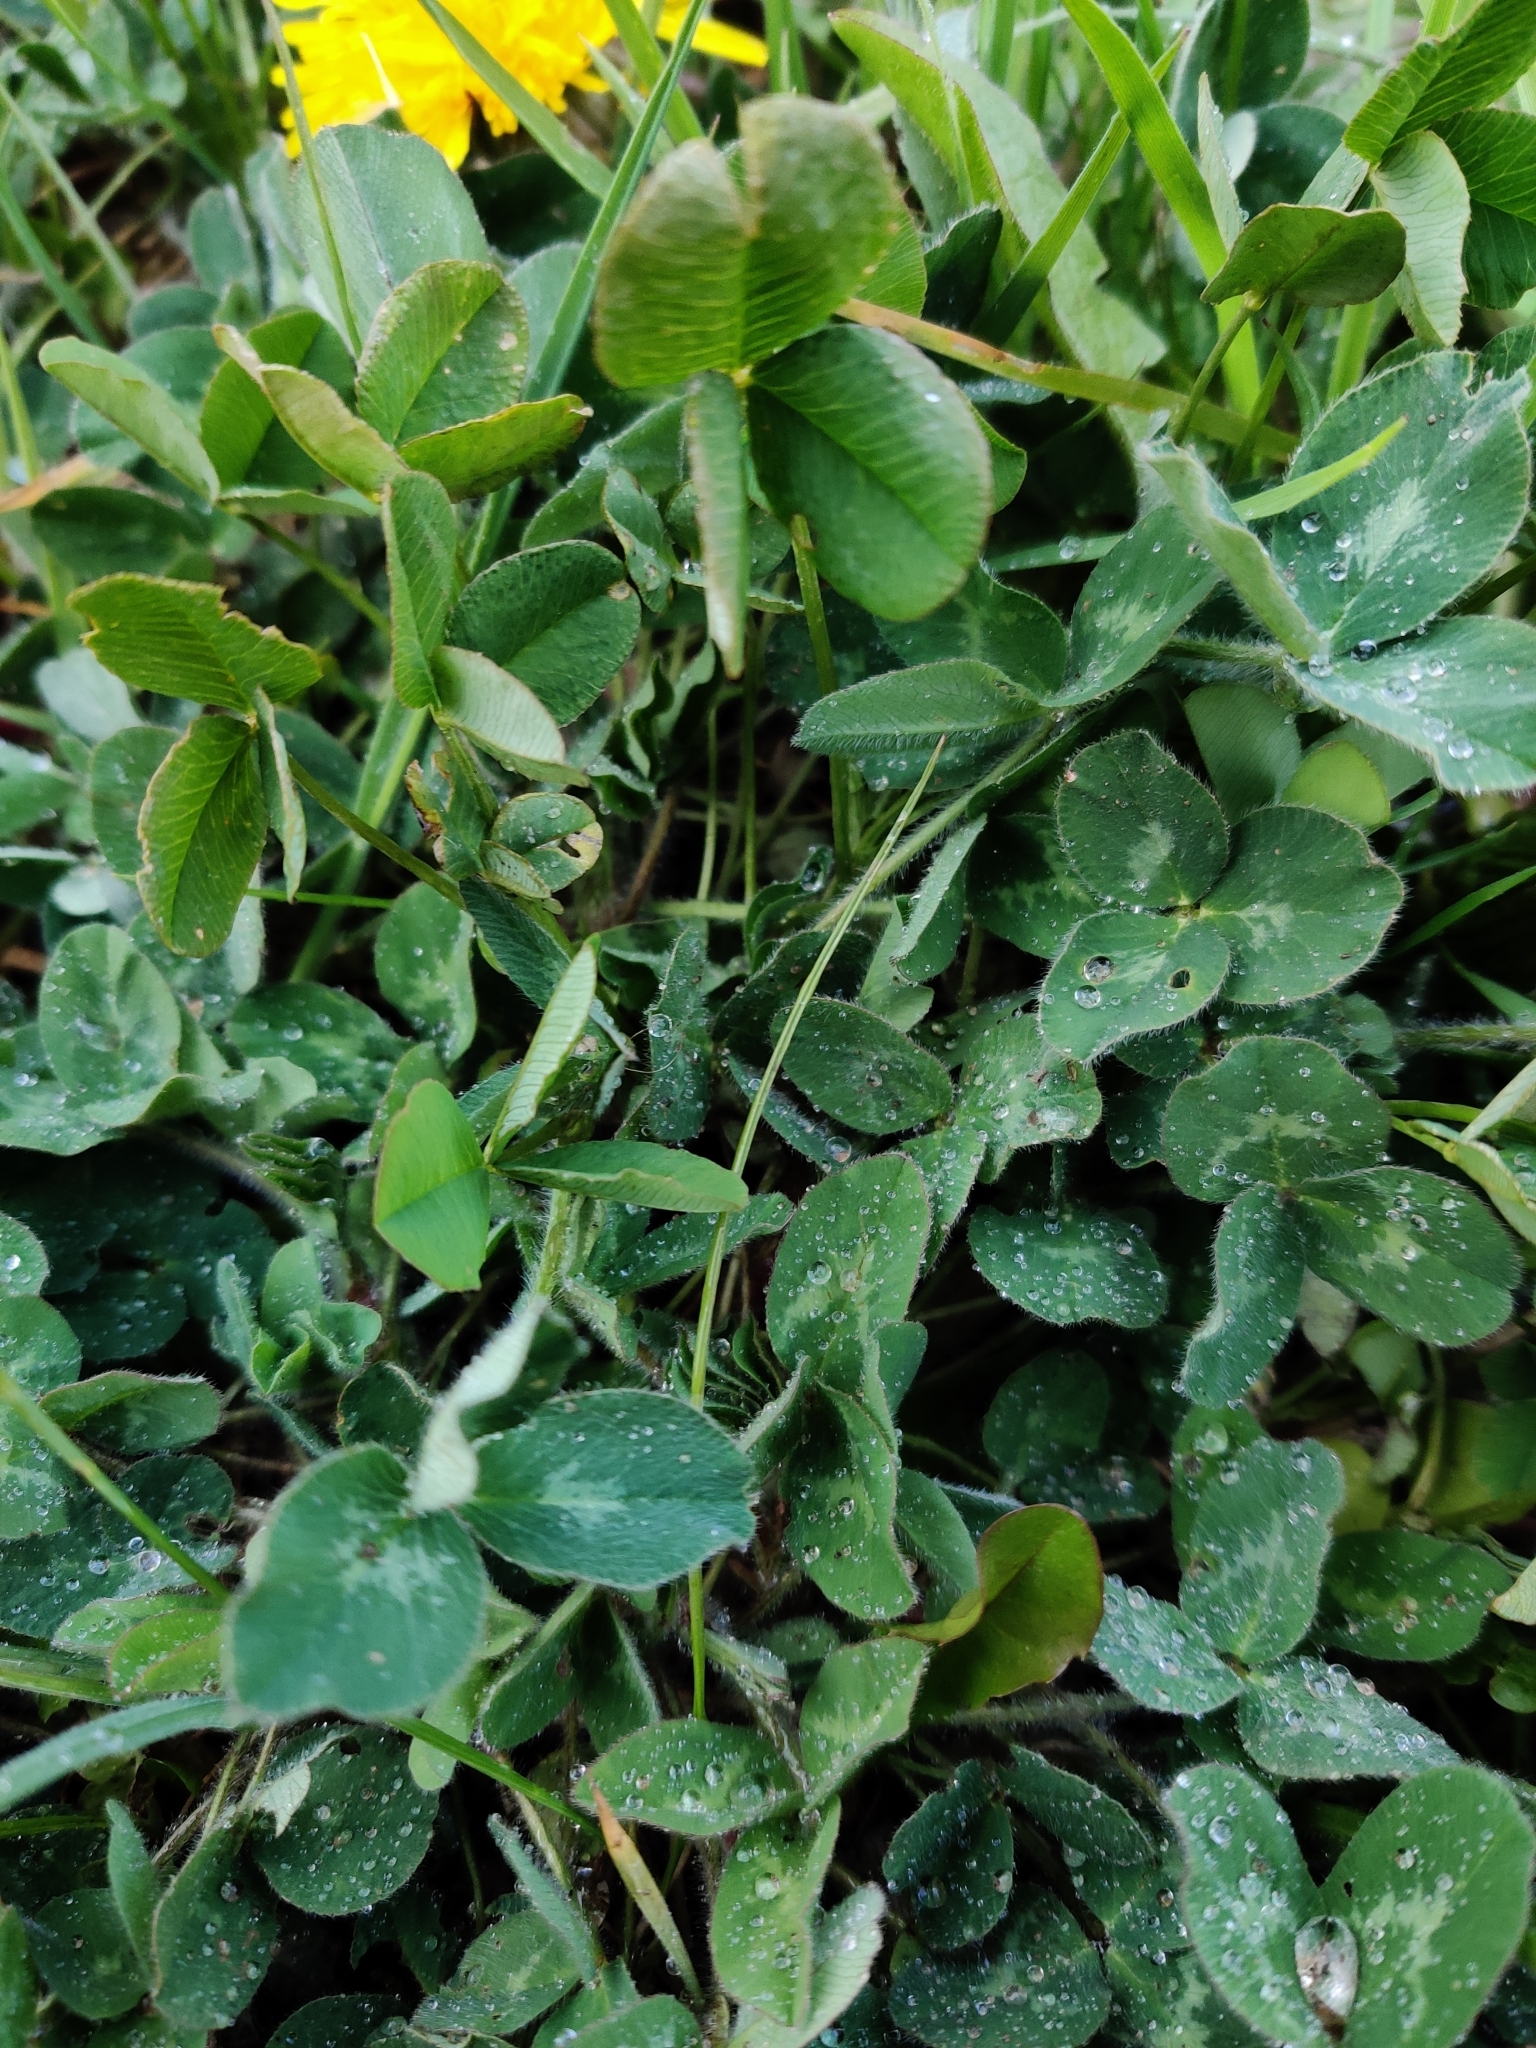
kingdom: Plantae
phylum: Tracheophyta
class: Magnoliopsida
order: Fabales
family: Fabaceae
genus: Trifolium
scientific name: Trifolium pratense
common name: Red clover
